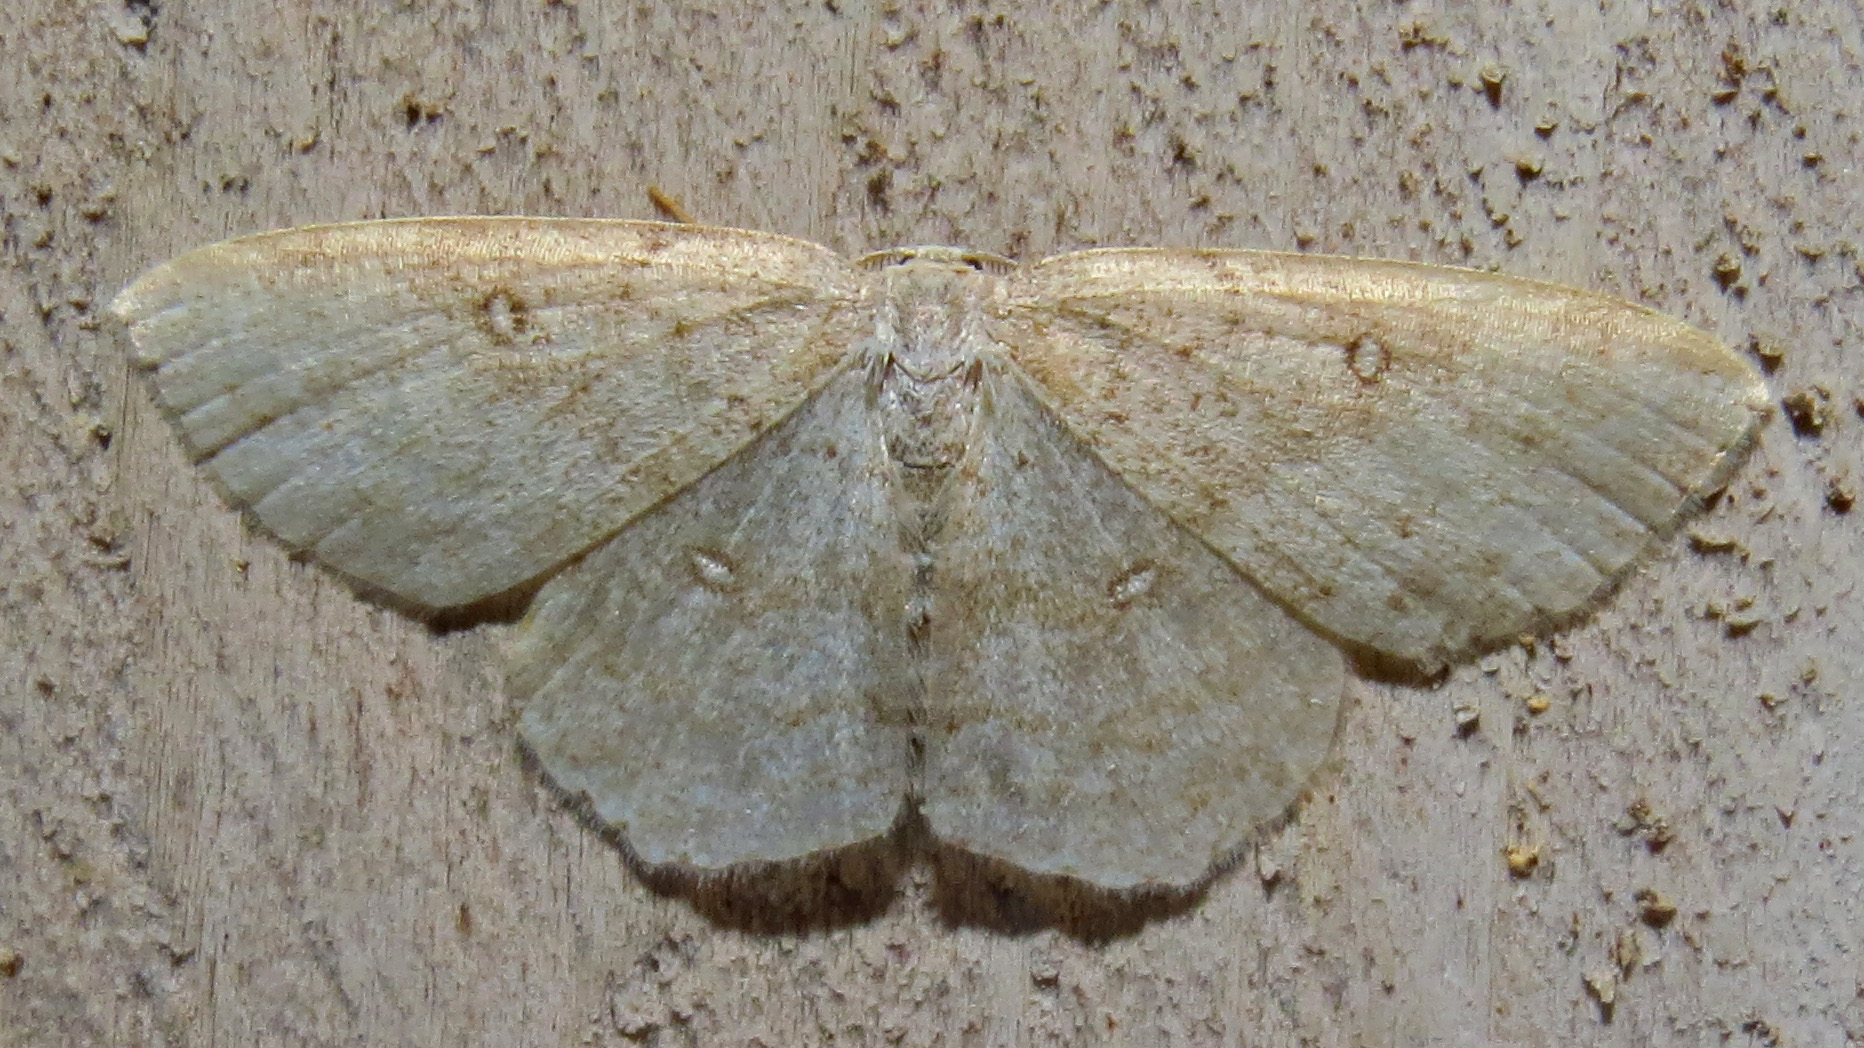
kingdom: Animalia
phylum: Arthropoda
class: Insecta
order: Lepidoptera
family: Geometridae
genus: Cyclophora
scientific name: Cyclophora pendulinaria
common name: Sweet fern geometer
